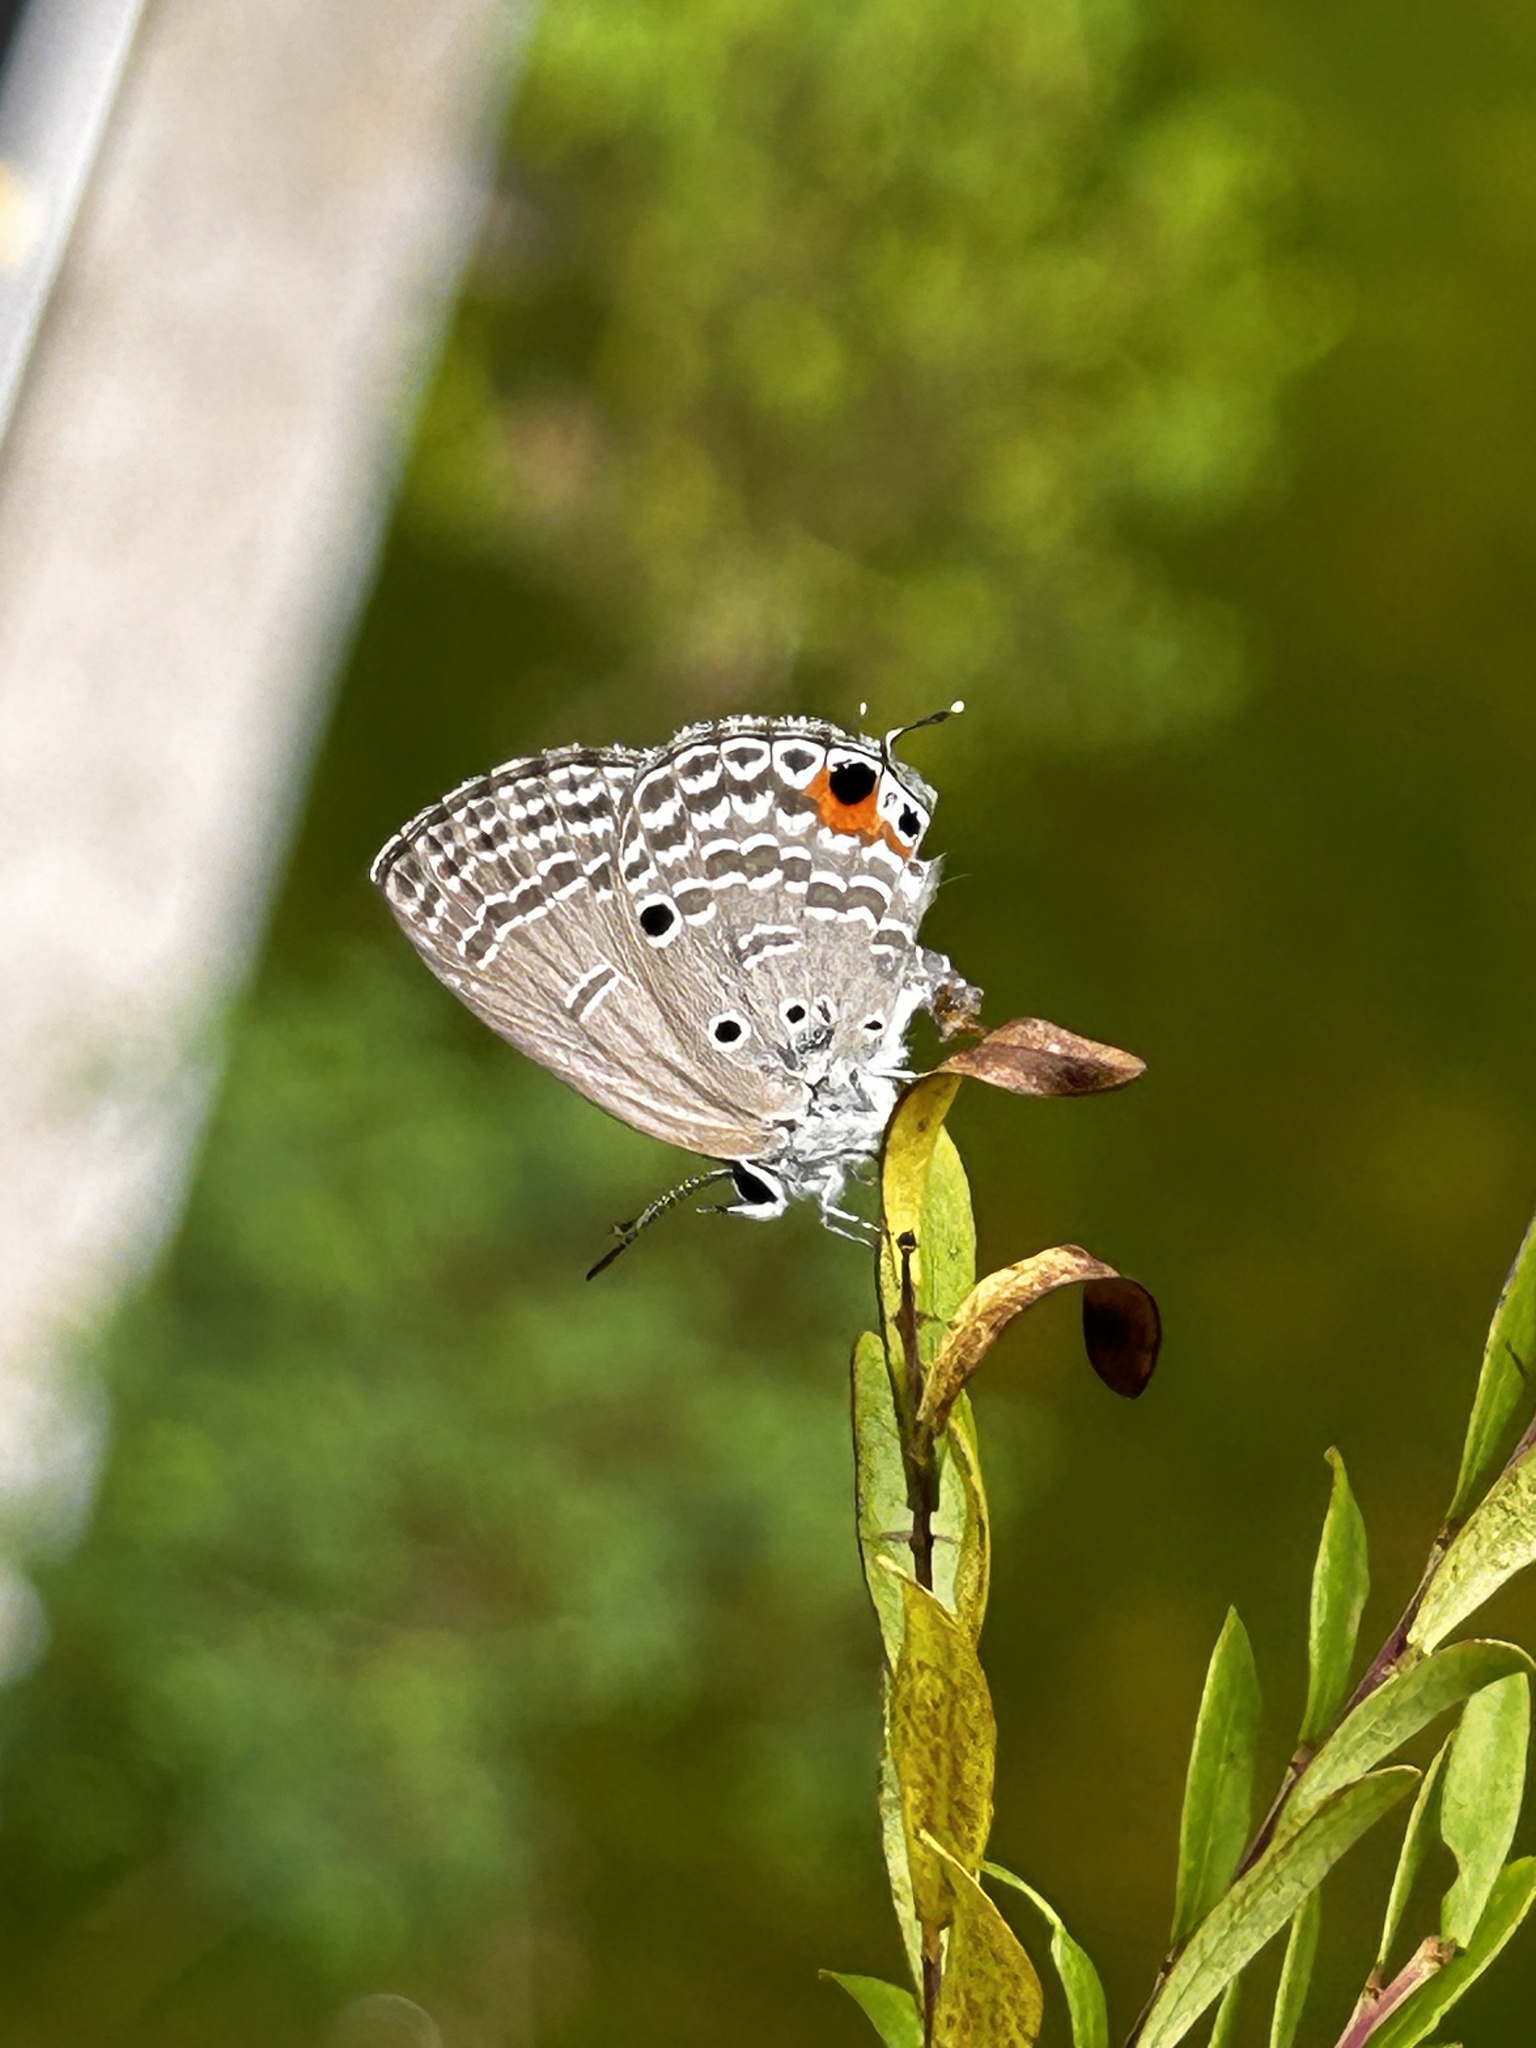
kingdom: Animalia
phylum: Arthropoda
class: Insecta
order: Lepidoptera
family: Lycaenidae
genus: Luthrodes
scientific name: Luthrodes pandava
